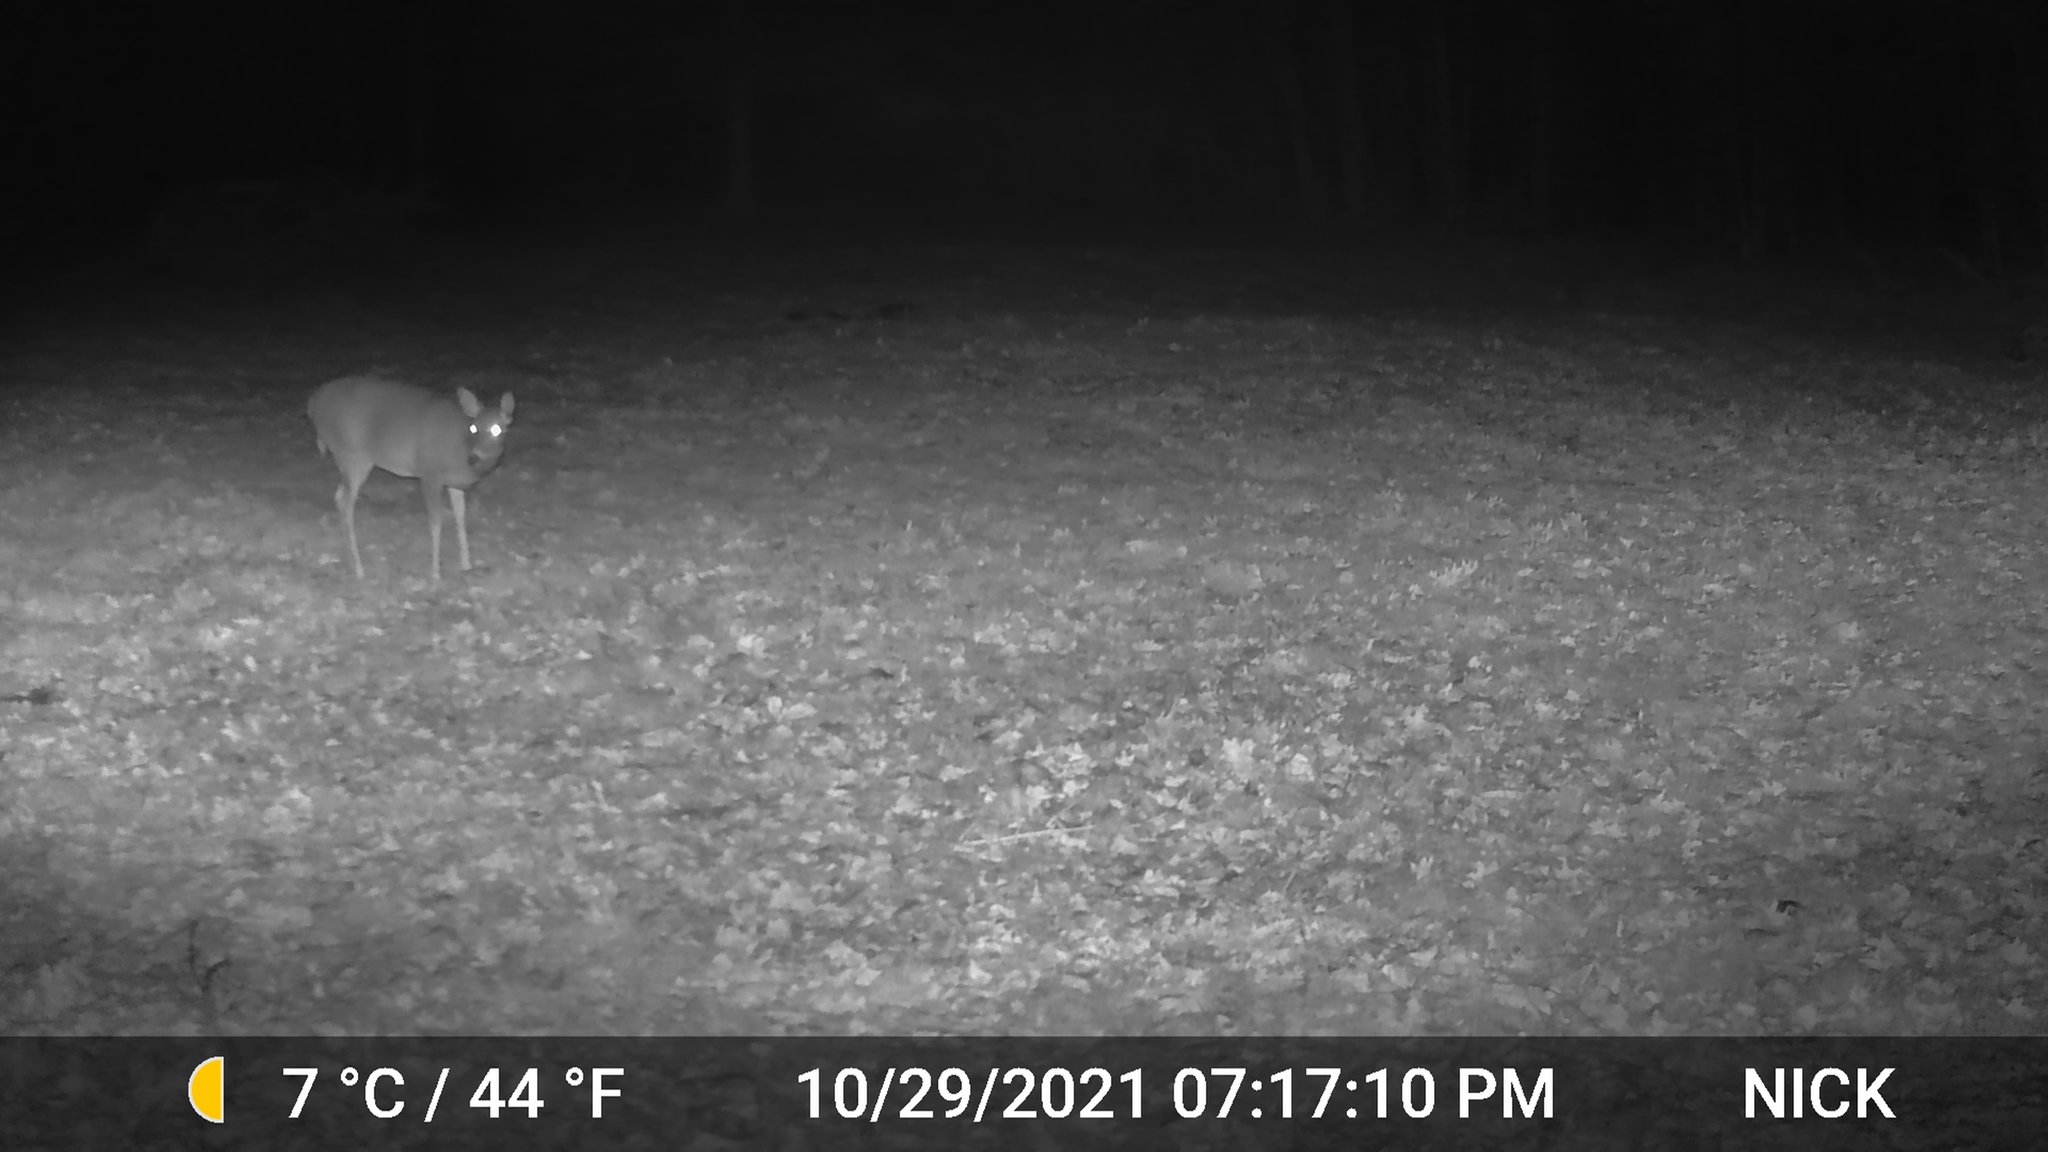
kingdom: Animalia
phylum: Chordata
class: Mammalia
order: Artiodactyla
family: Cervidae
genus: Odocoileus
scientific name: Odocoileus virginianus
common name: White-tailed deer
